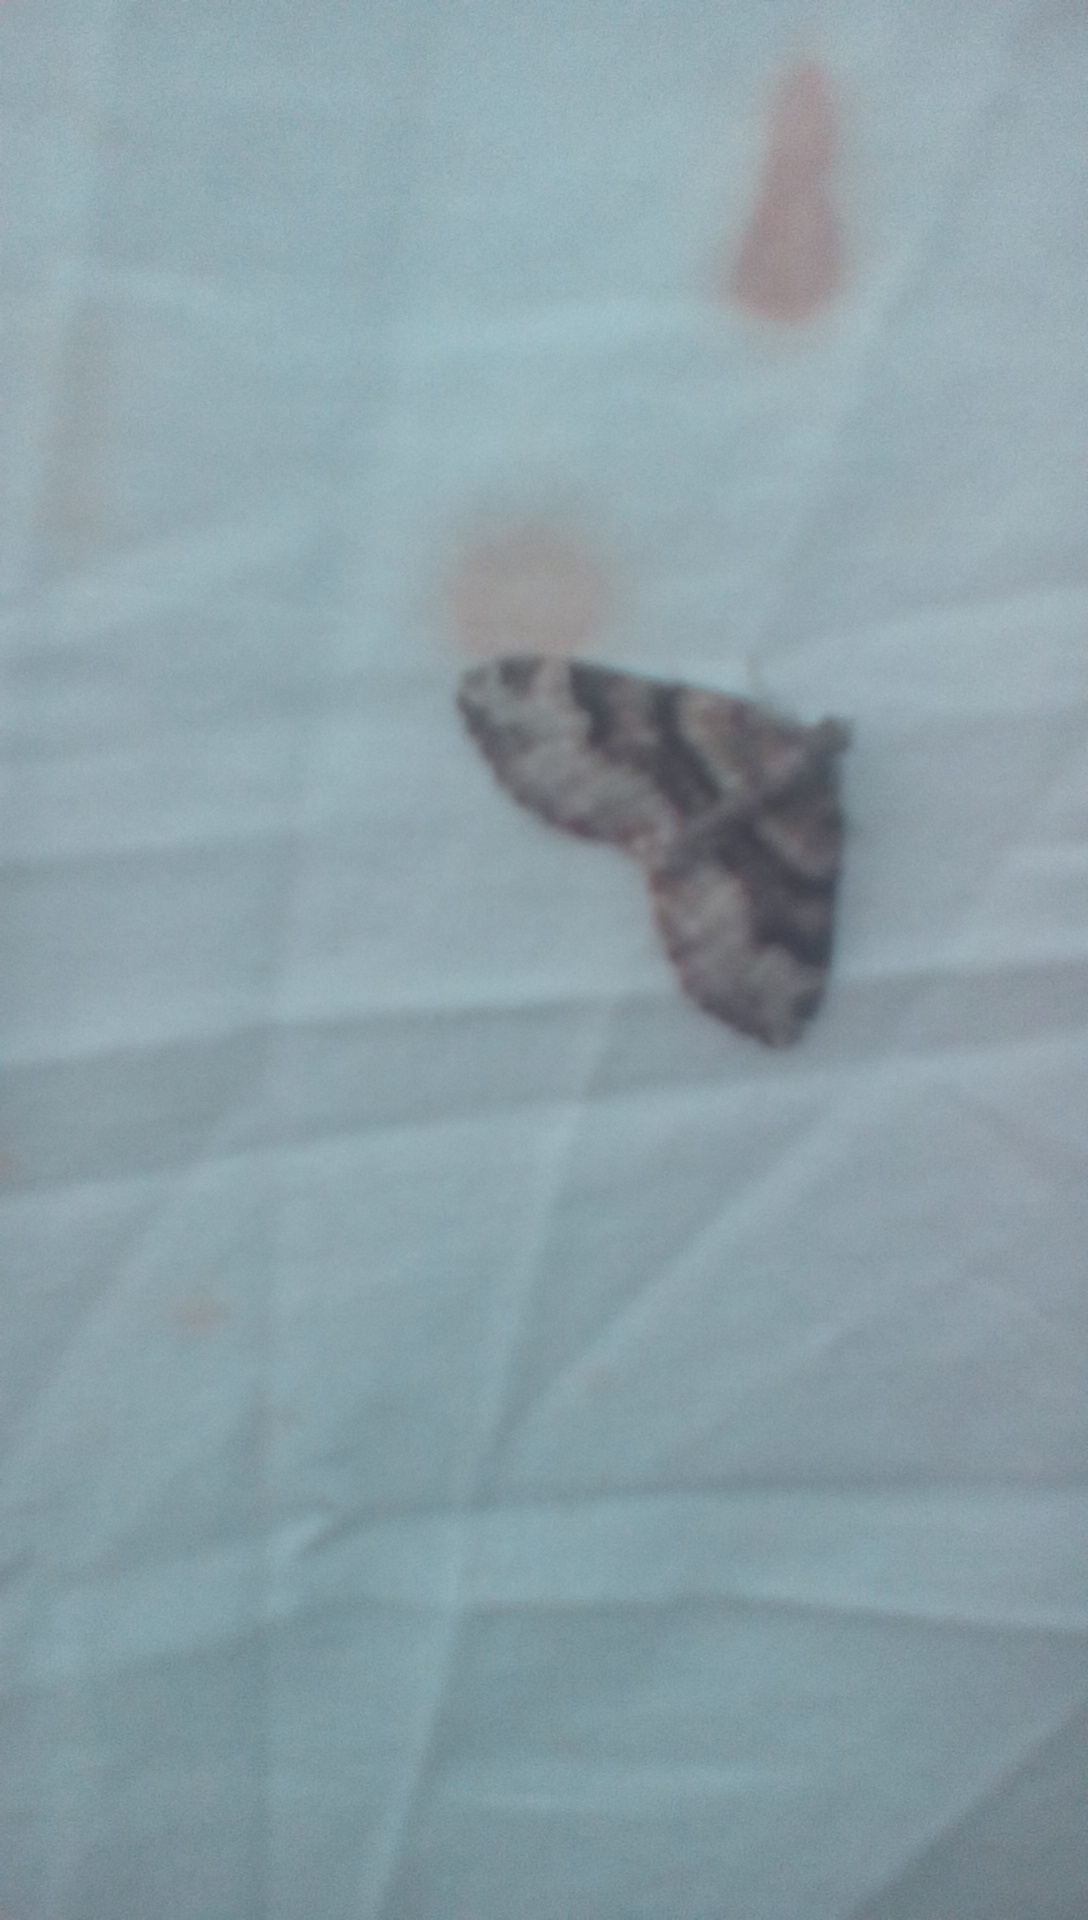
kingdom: Animalia
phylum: Arthropoda
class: Insecta
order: Lepidoptera
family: Geometridae
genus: Xanthorhoe
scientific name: Xanthorhoe lacustrata
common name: Toothed brown carpet
